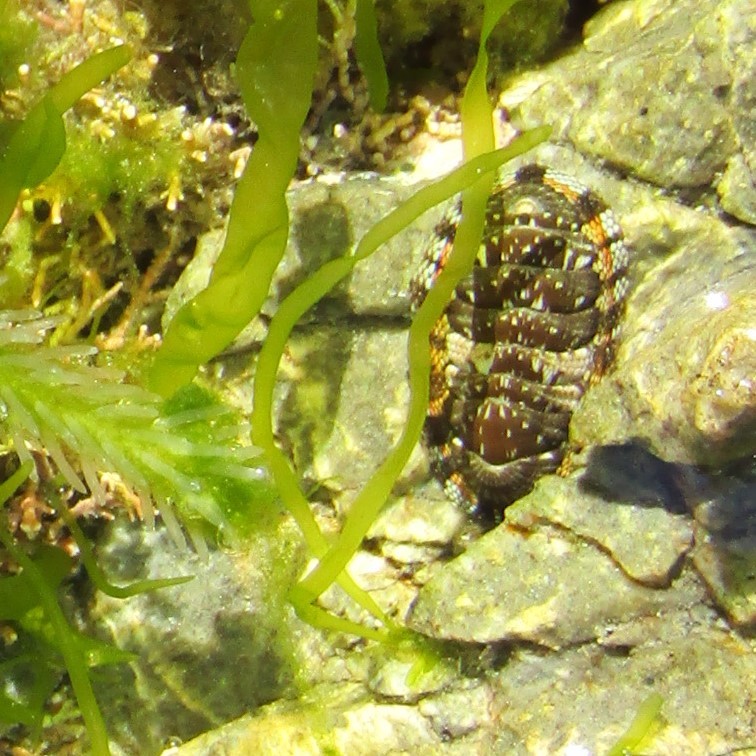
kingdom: Animalia
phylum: Mollusca
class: Polyplacophora
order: Chitonida
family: Chitonidae
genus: Sypharochiton
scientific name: Sypharochiton sinclairi
